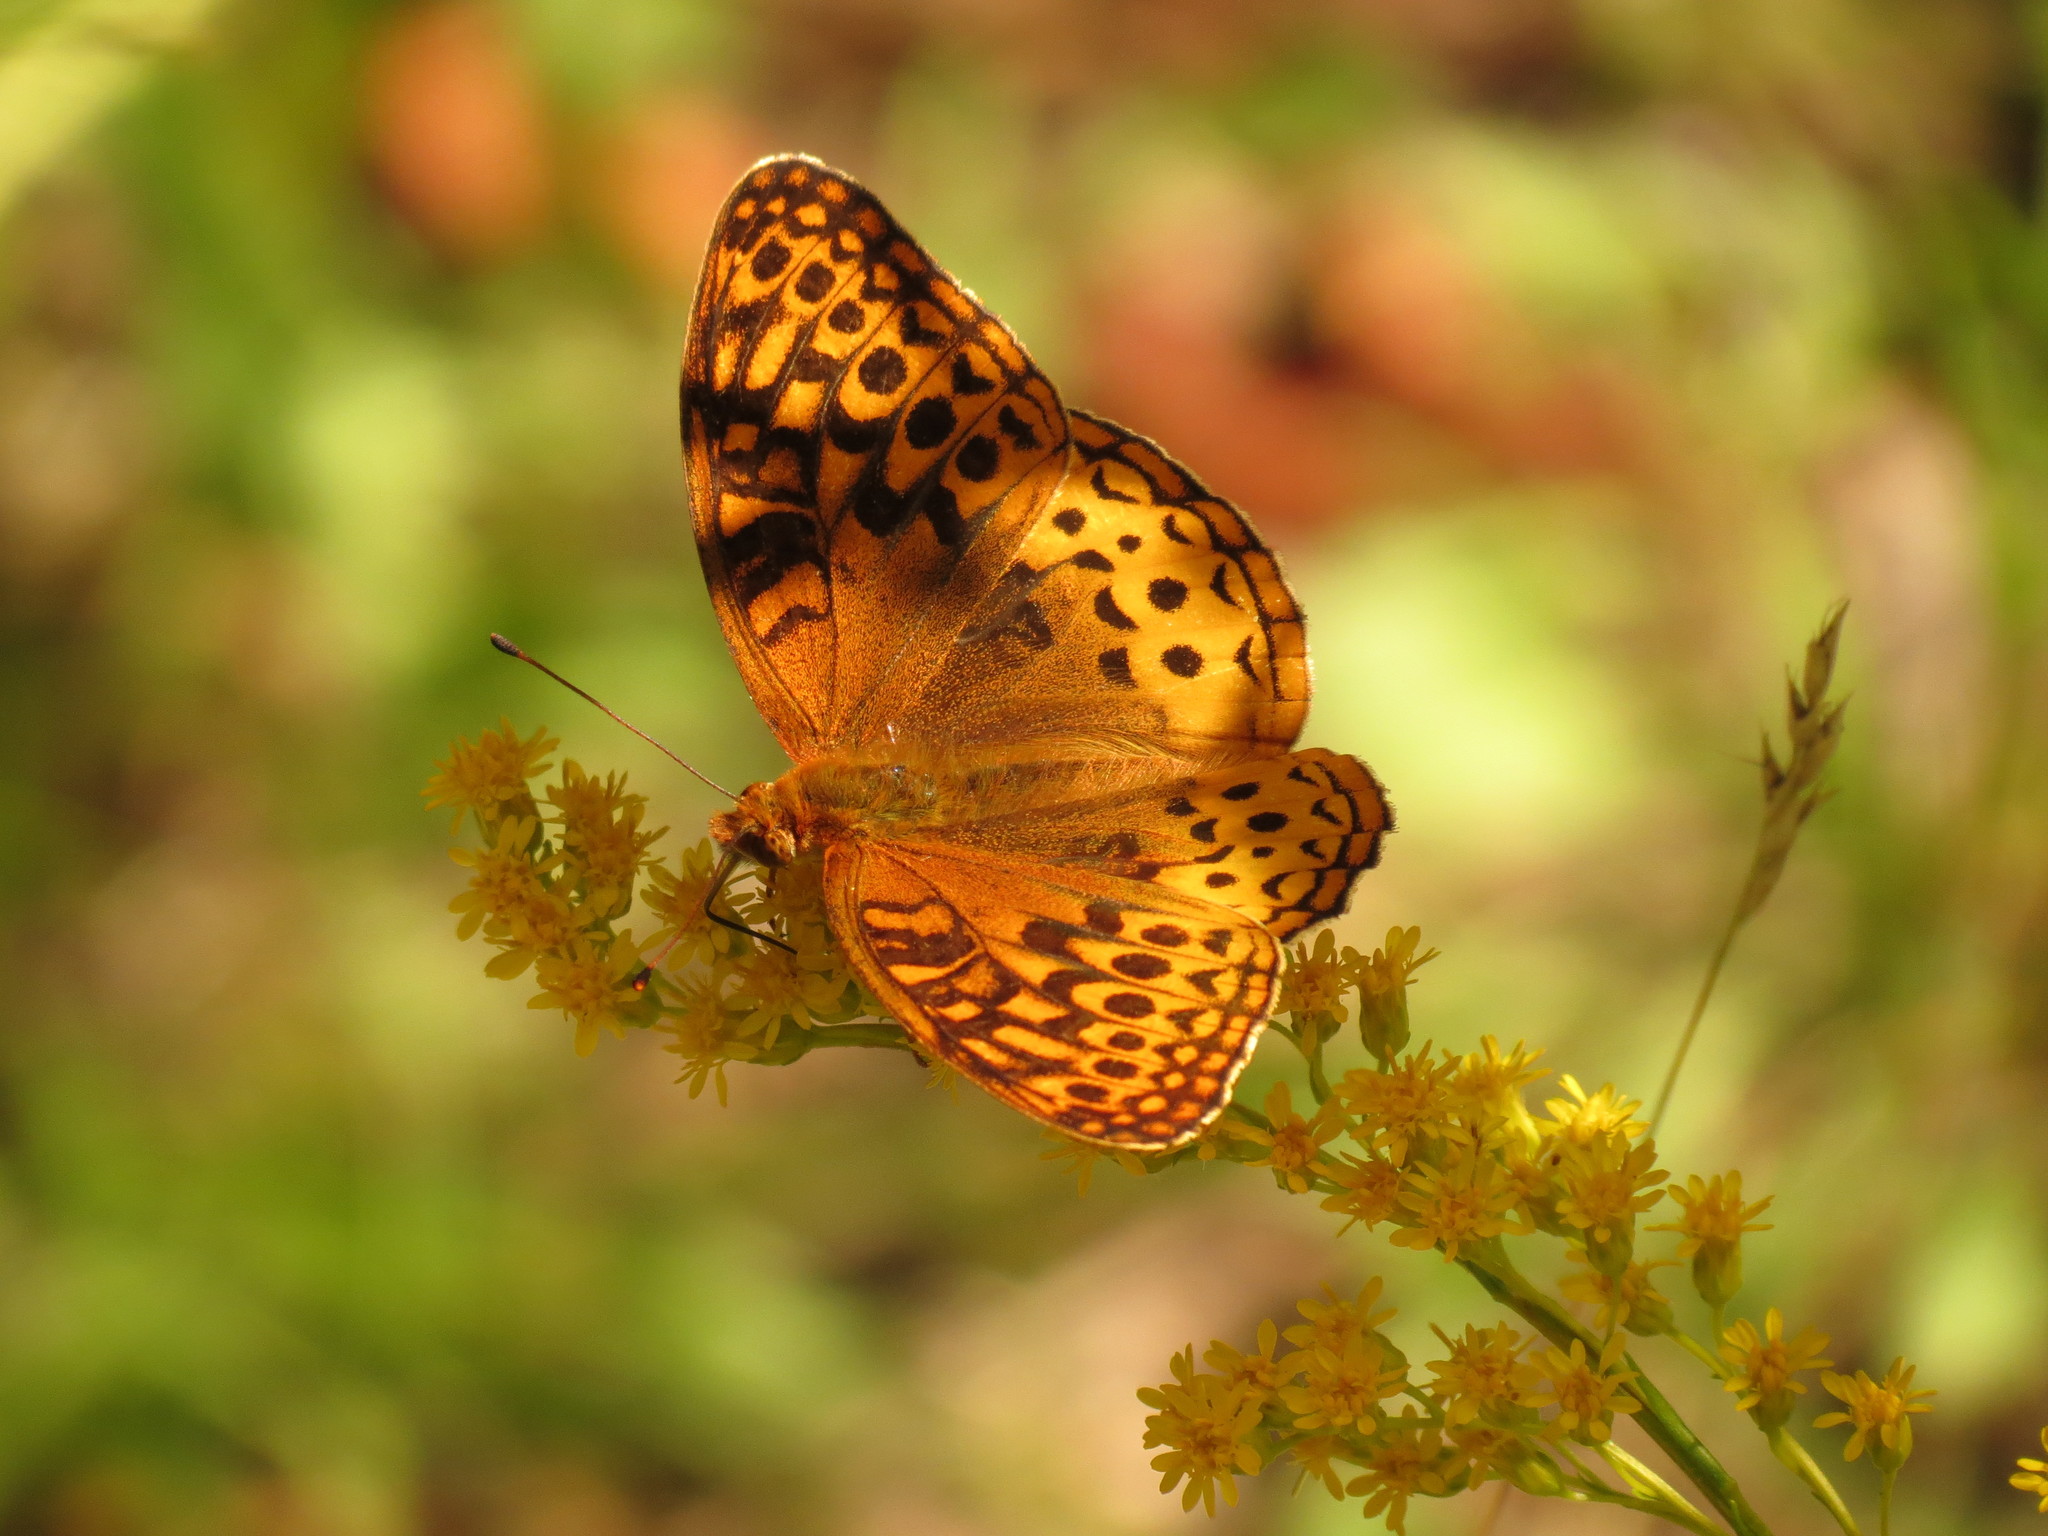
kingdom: Animalia
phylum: Arthropoda
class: Insecta
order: Lepidoptera
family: Nymphalidae
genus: Speyeria
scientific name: Speyeria cybele
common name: Great spangled fritillary
